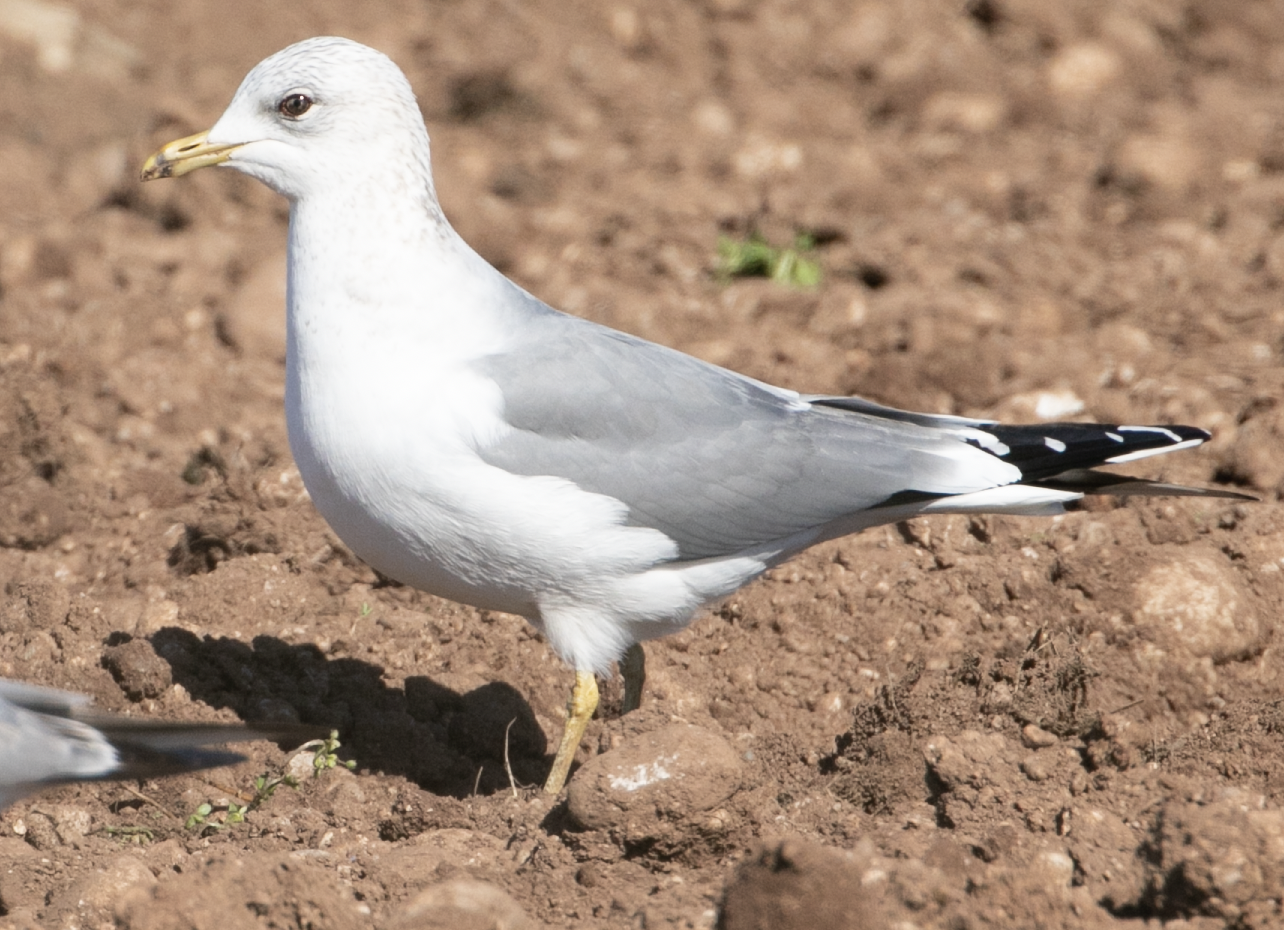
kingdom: Animalia
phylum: Chordata
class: Aves
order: Charadriiformes
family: Laridae
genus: Larus
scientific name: Larus canus
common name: Mew gull
